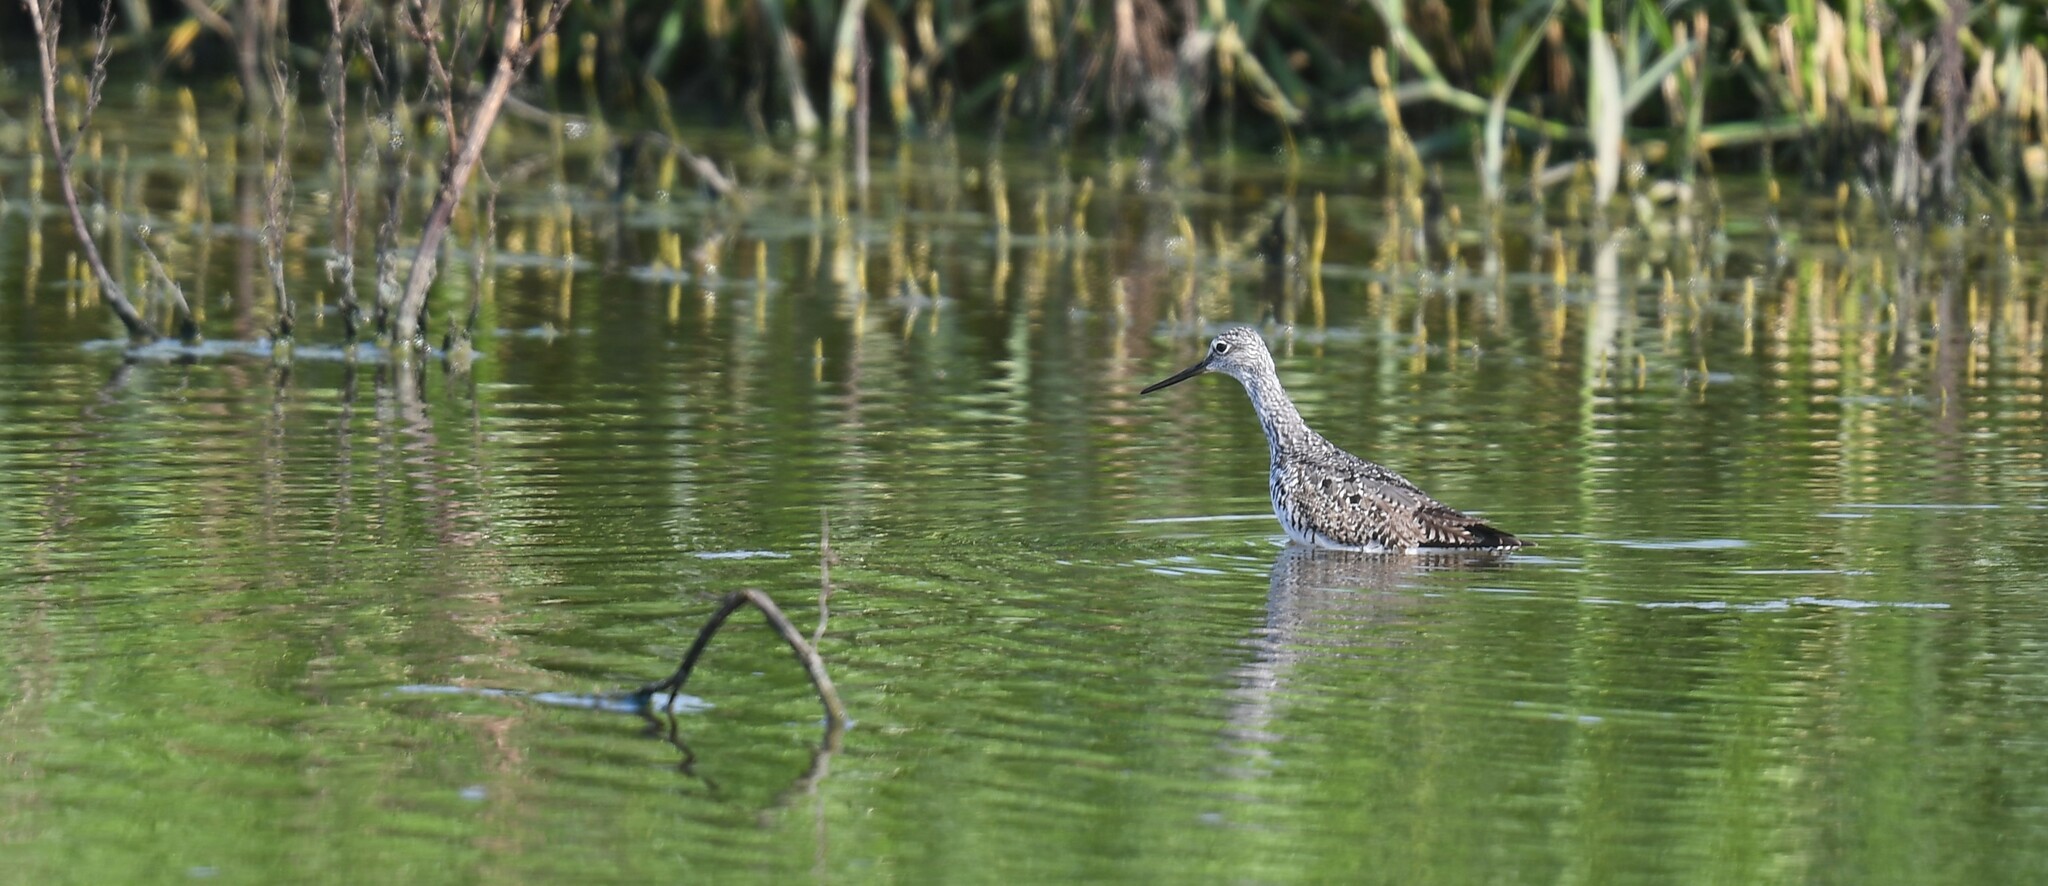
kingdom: Animalia
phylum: Chordata
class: Aves
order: Charadriiformes
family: Scolopacidae
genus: Tringa
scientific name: Tringa melanoleuca
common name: Greater yellowlegs
